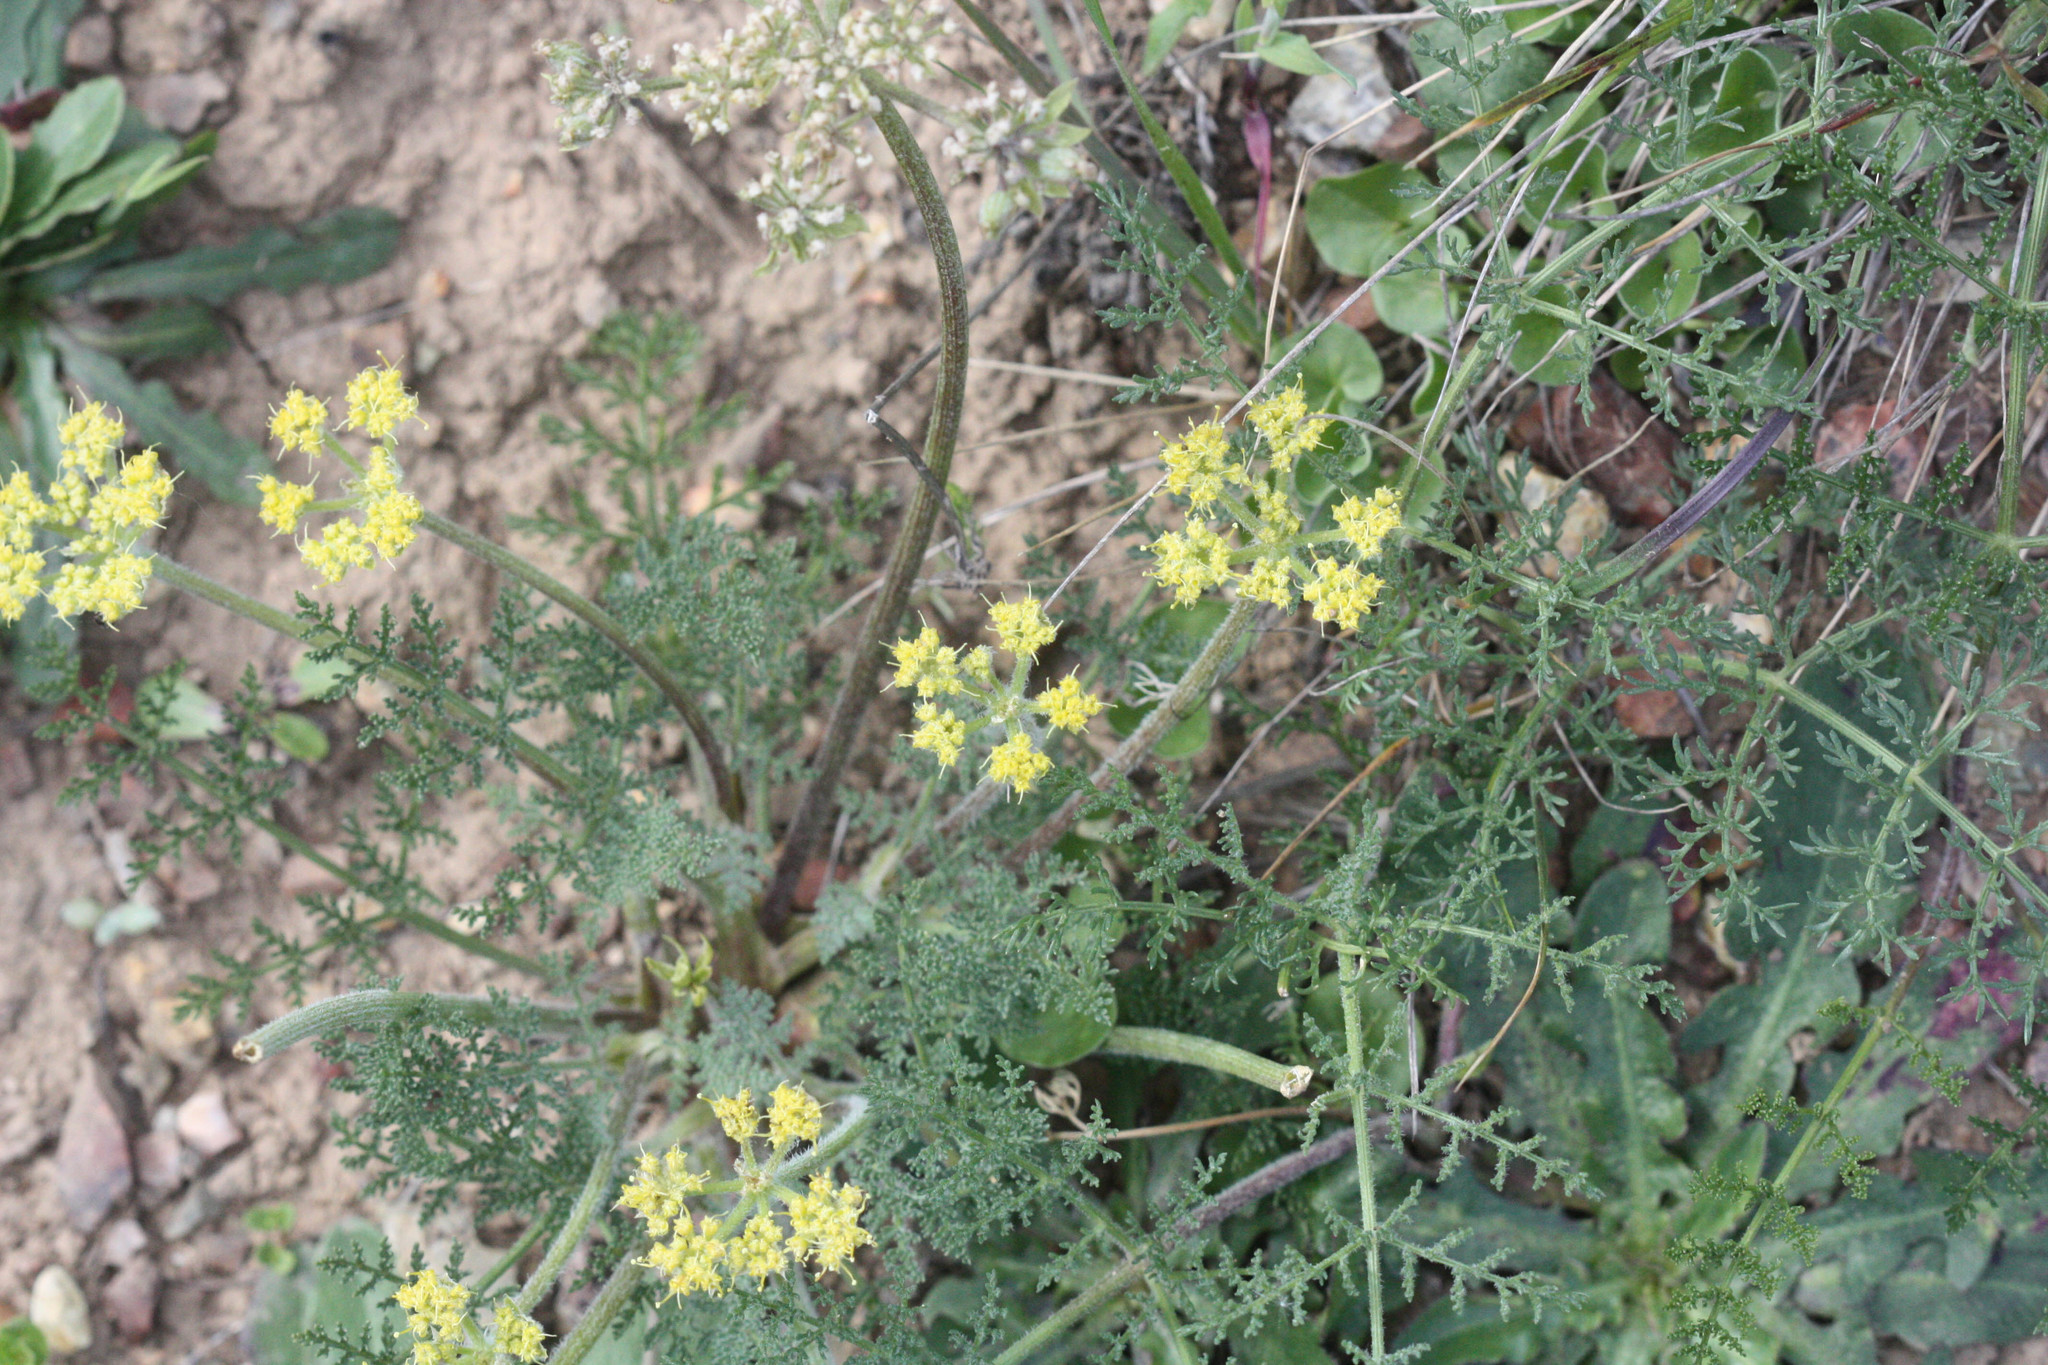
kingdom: Plantae
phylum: Tracheophyta
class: Magnoliopsida
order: Apiales
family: Apiaceae
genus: Lomatium
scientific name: Lomatium dasycarpum
